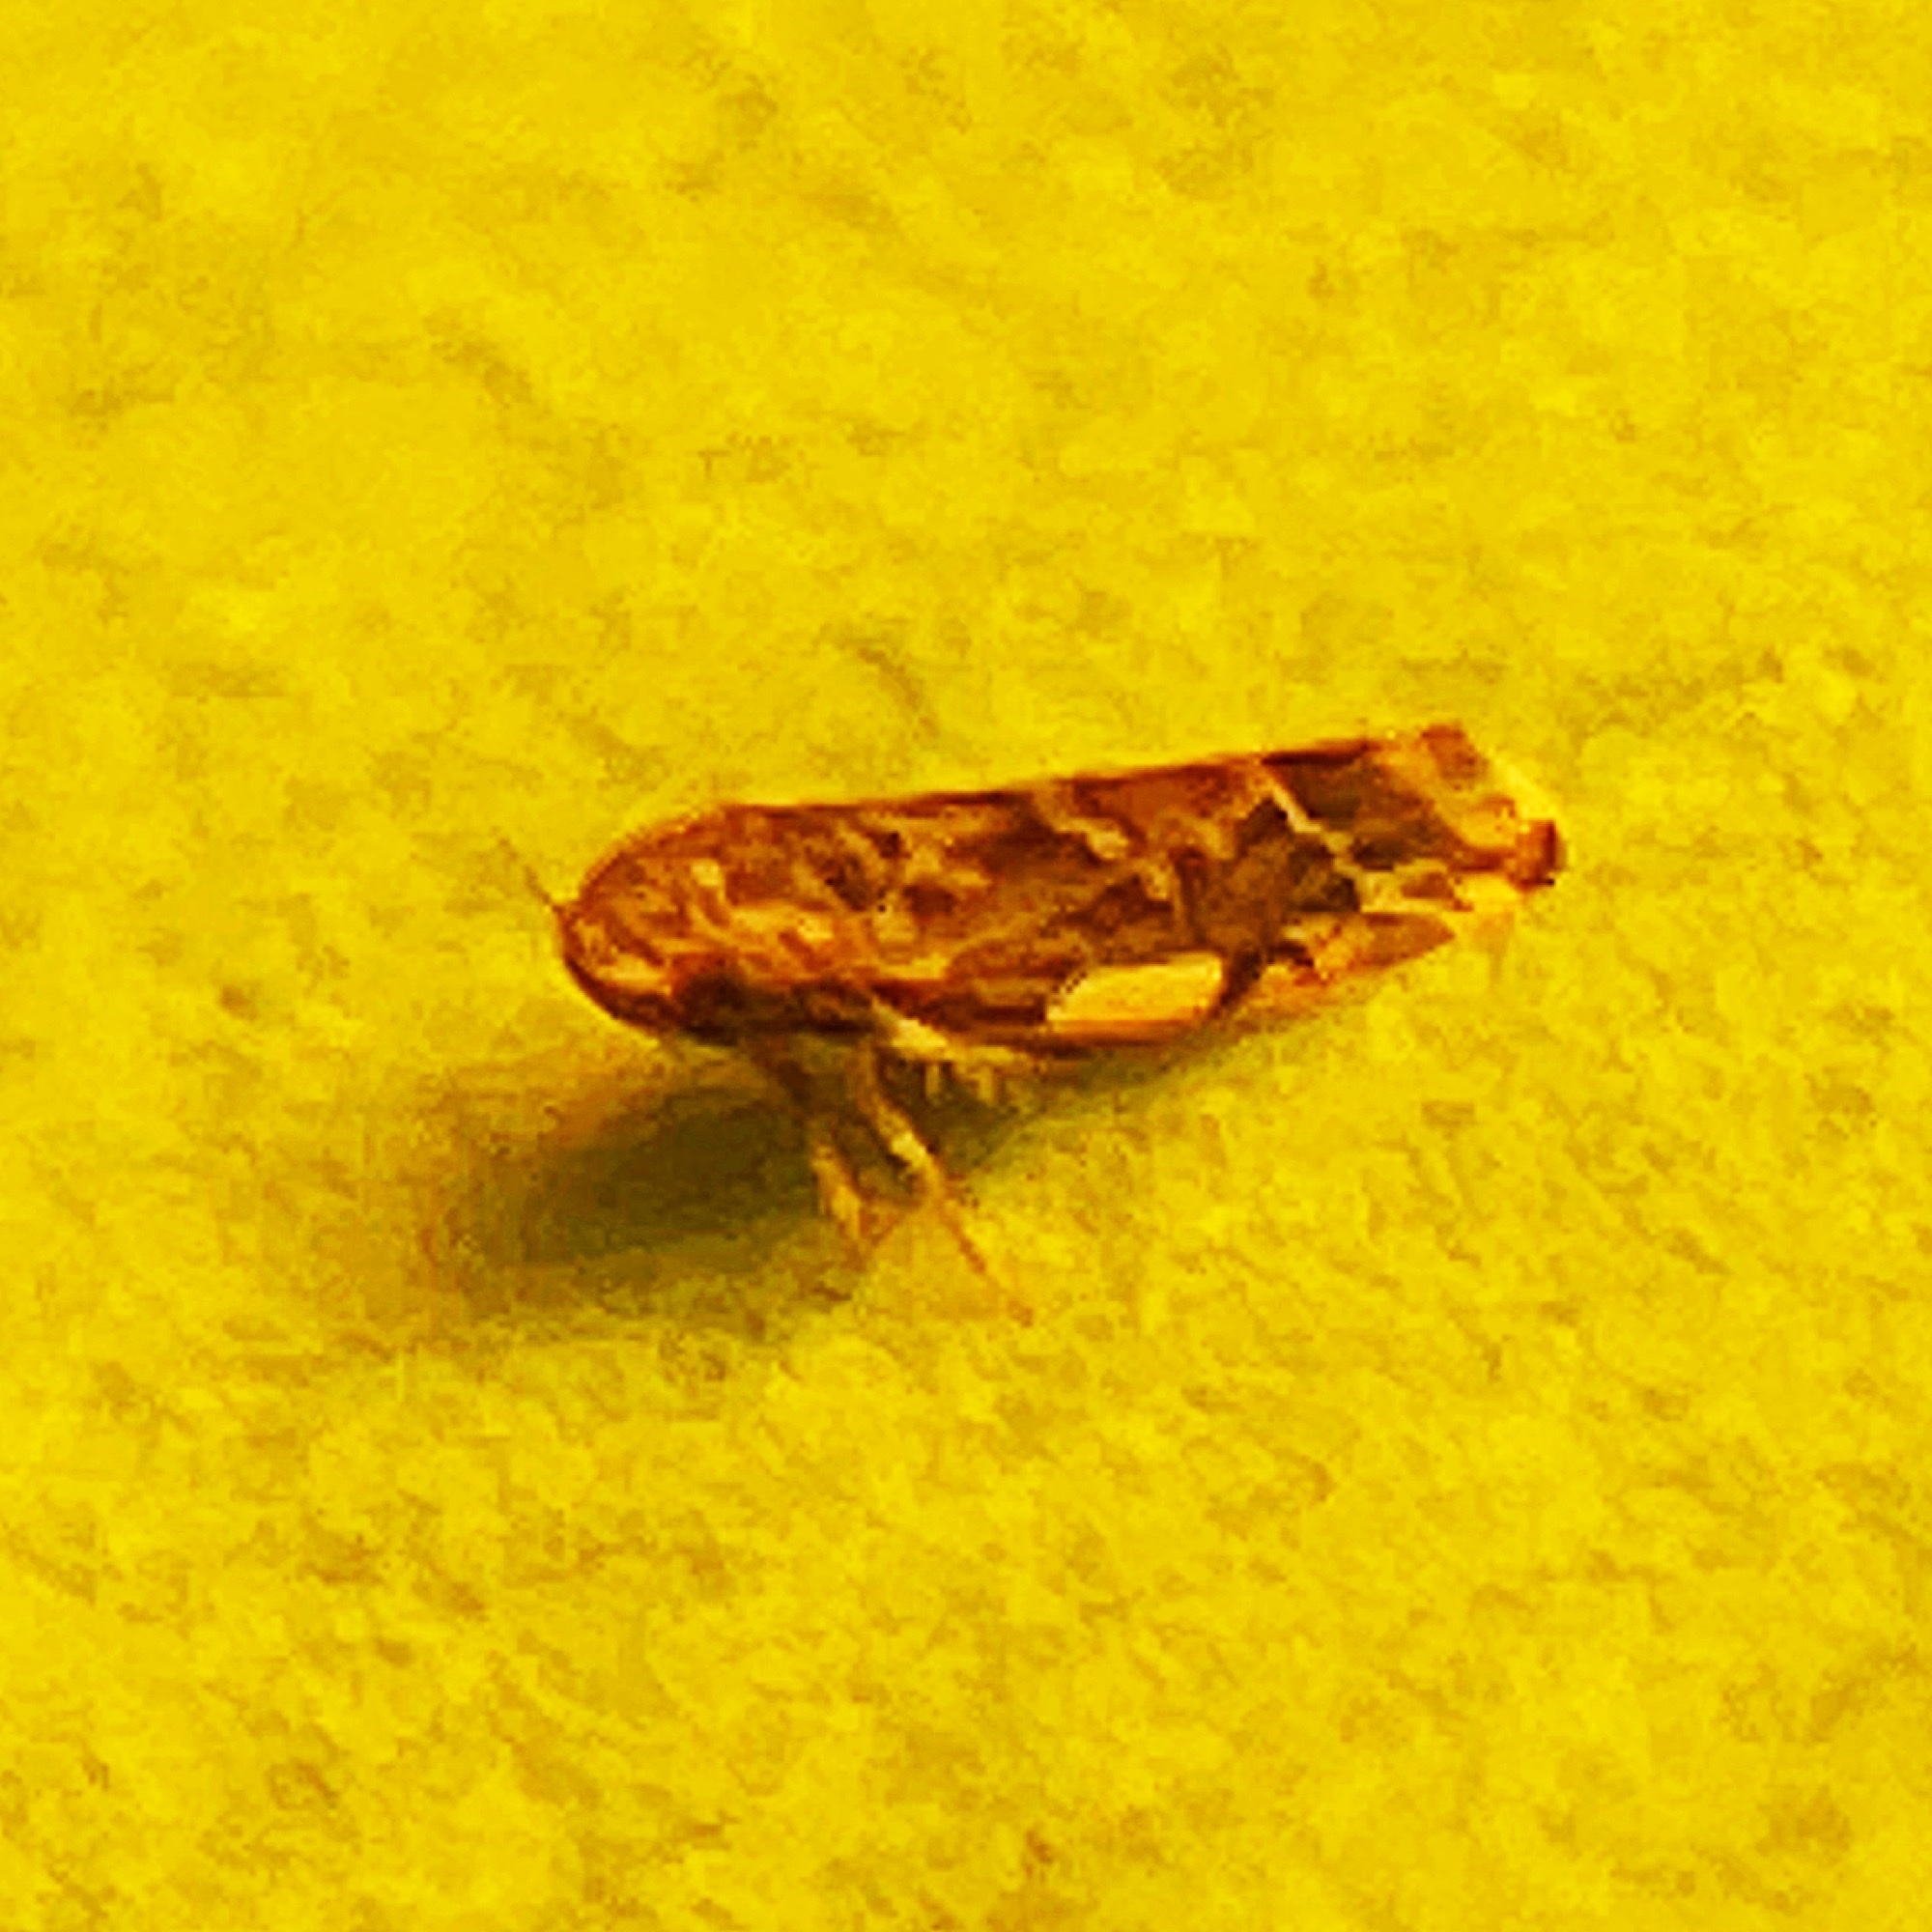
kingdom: Animalia
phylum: Arthropoda
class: Insecta
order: Hemiptera
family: Cicadellidae
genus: Erasmoneura
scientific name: Erasmoneura vulnerata
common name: The wounded leafhopper
